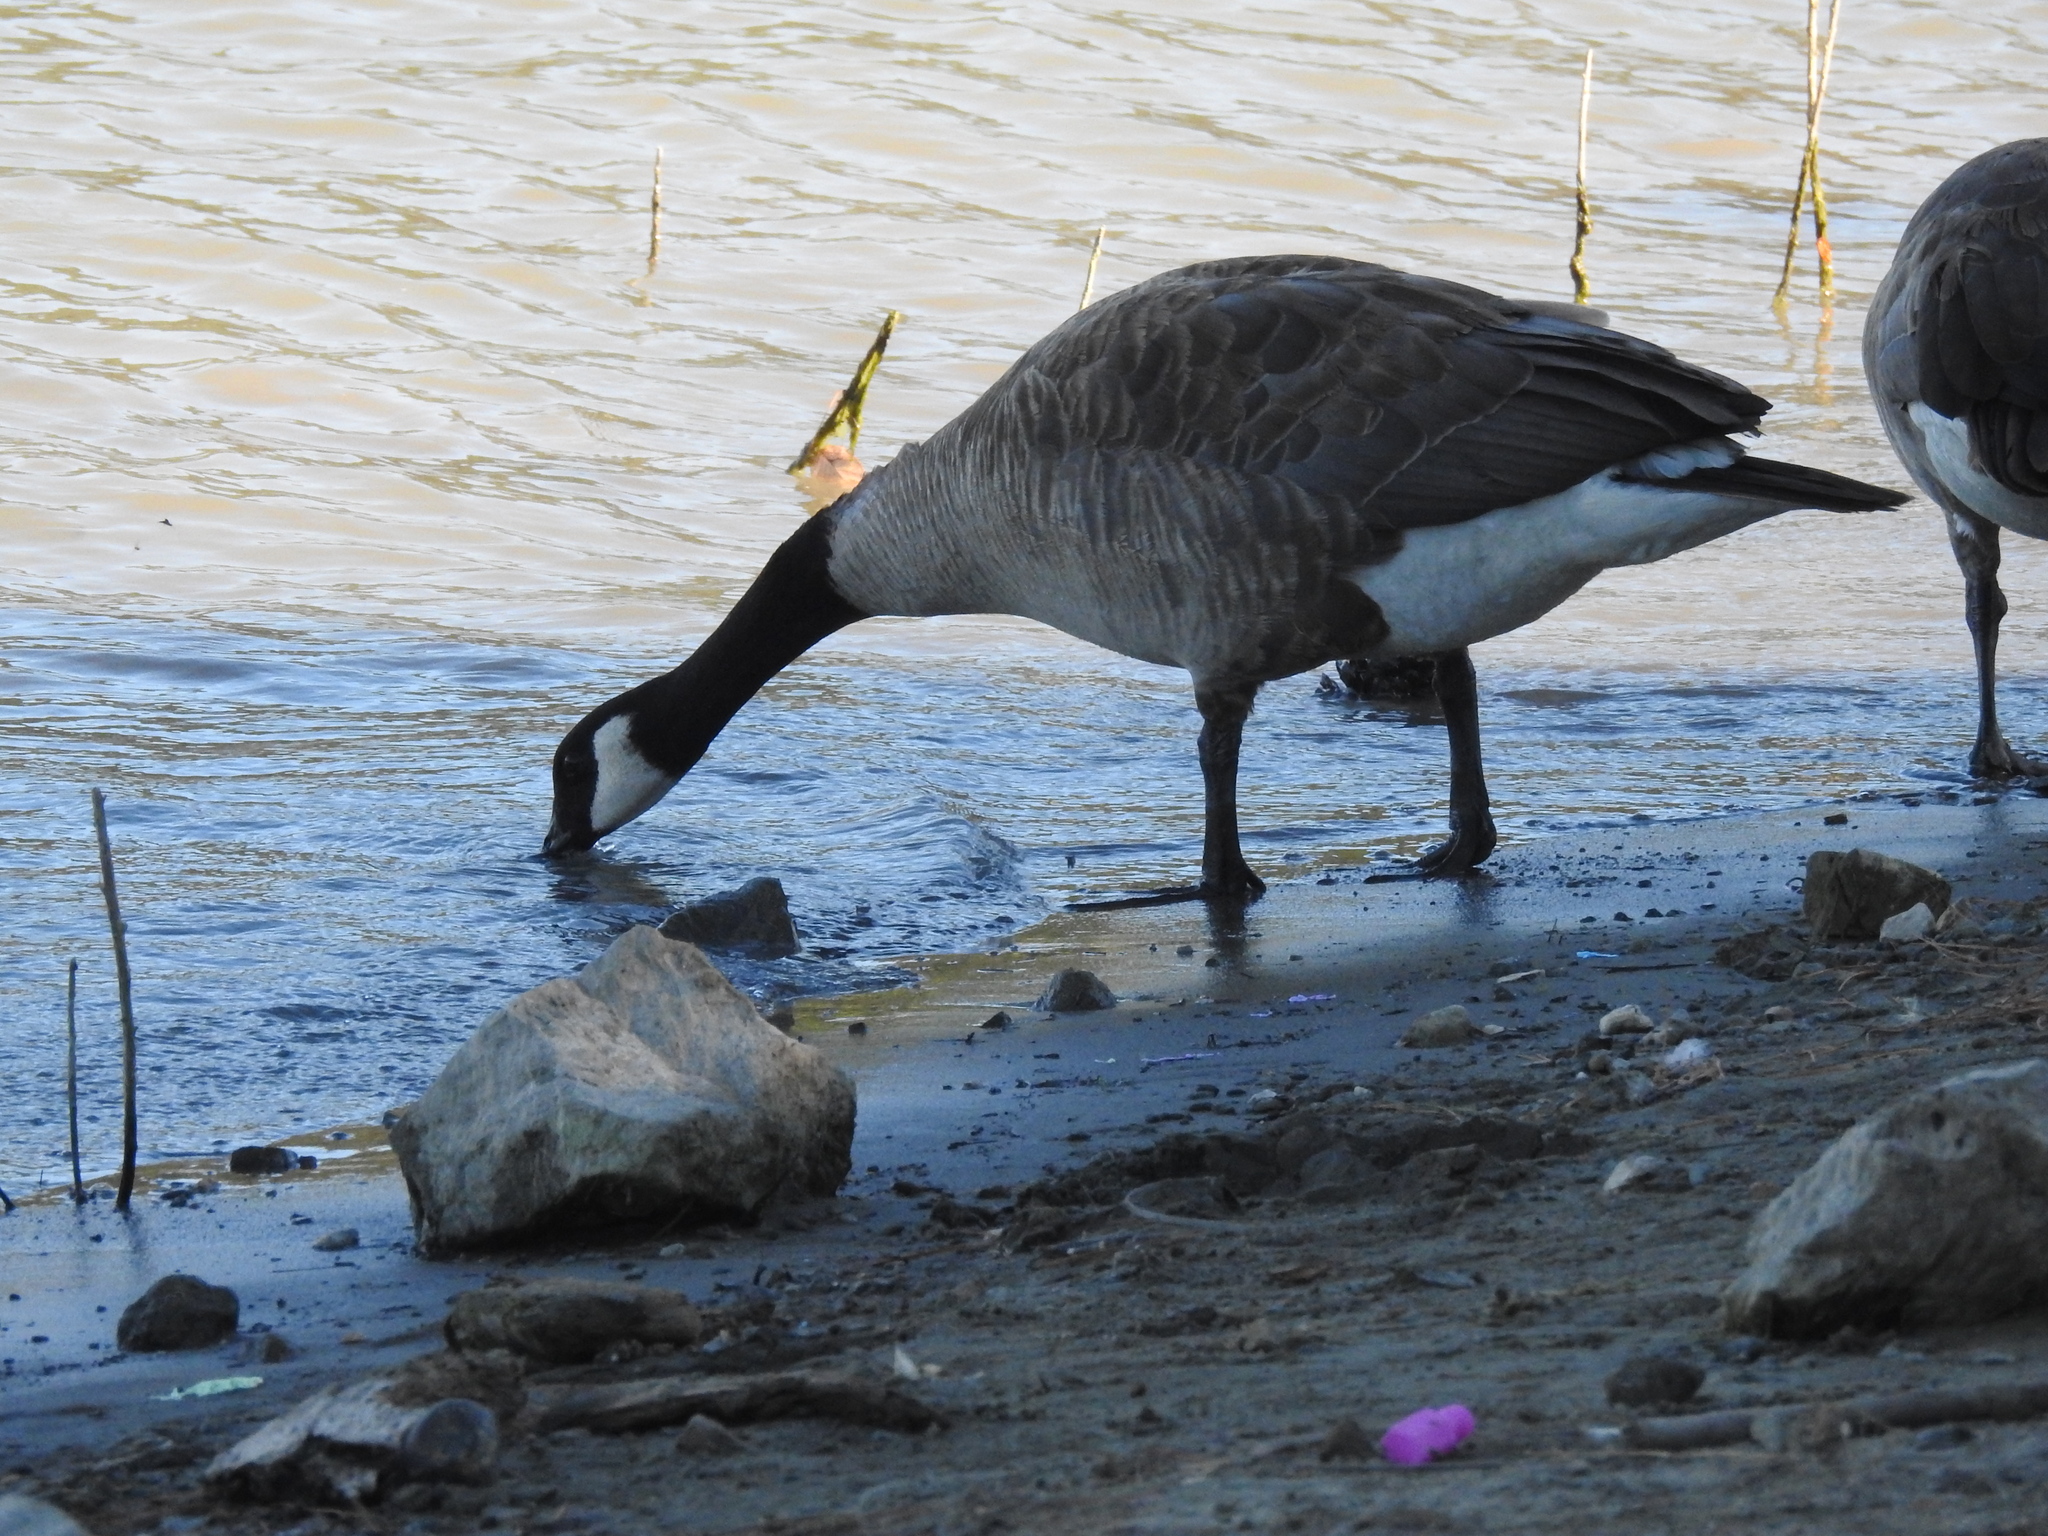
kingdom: Animalia
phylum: Chordata
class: Aves
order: Anseriformes
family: Anatidae
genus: Branta
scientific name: Branta canadensis
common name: Canada goose
